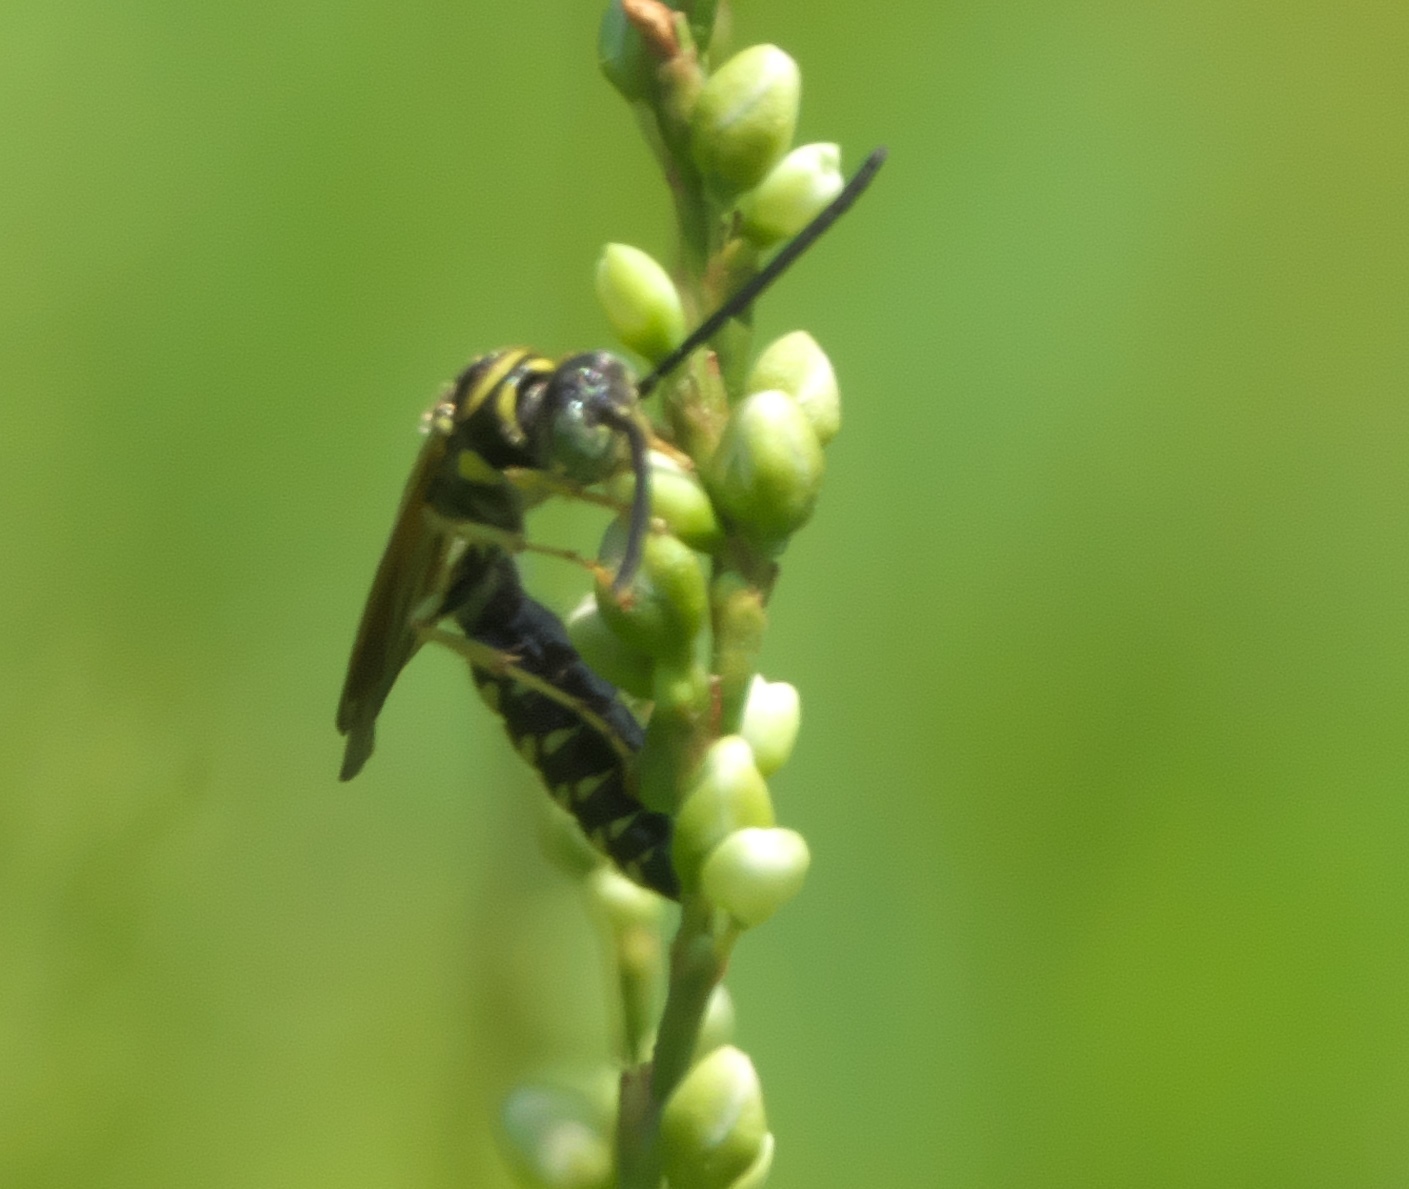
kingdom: Animalia
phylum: Arthropoda
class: Insecta
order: Hymenoptera
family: Tiphiidae
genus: Myzinum
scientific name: Myzinum
